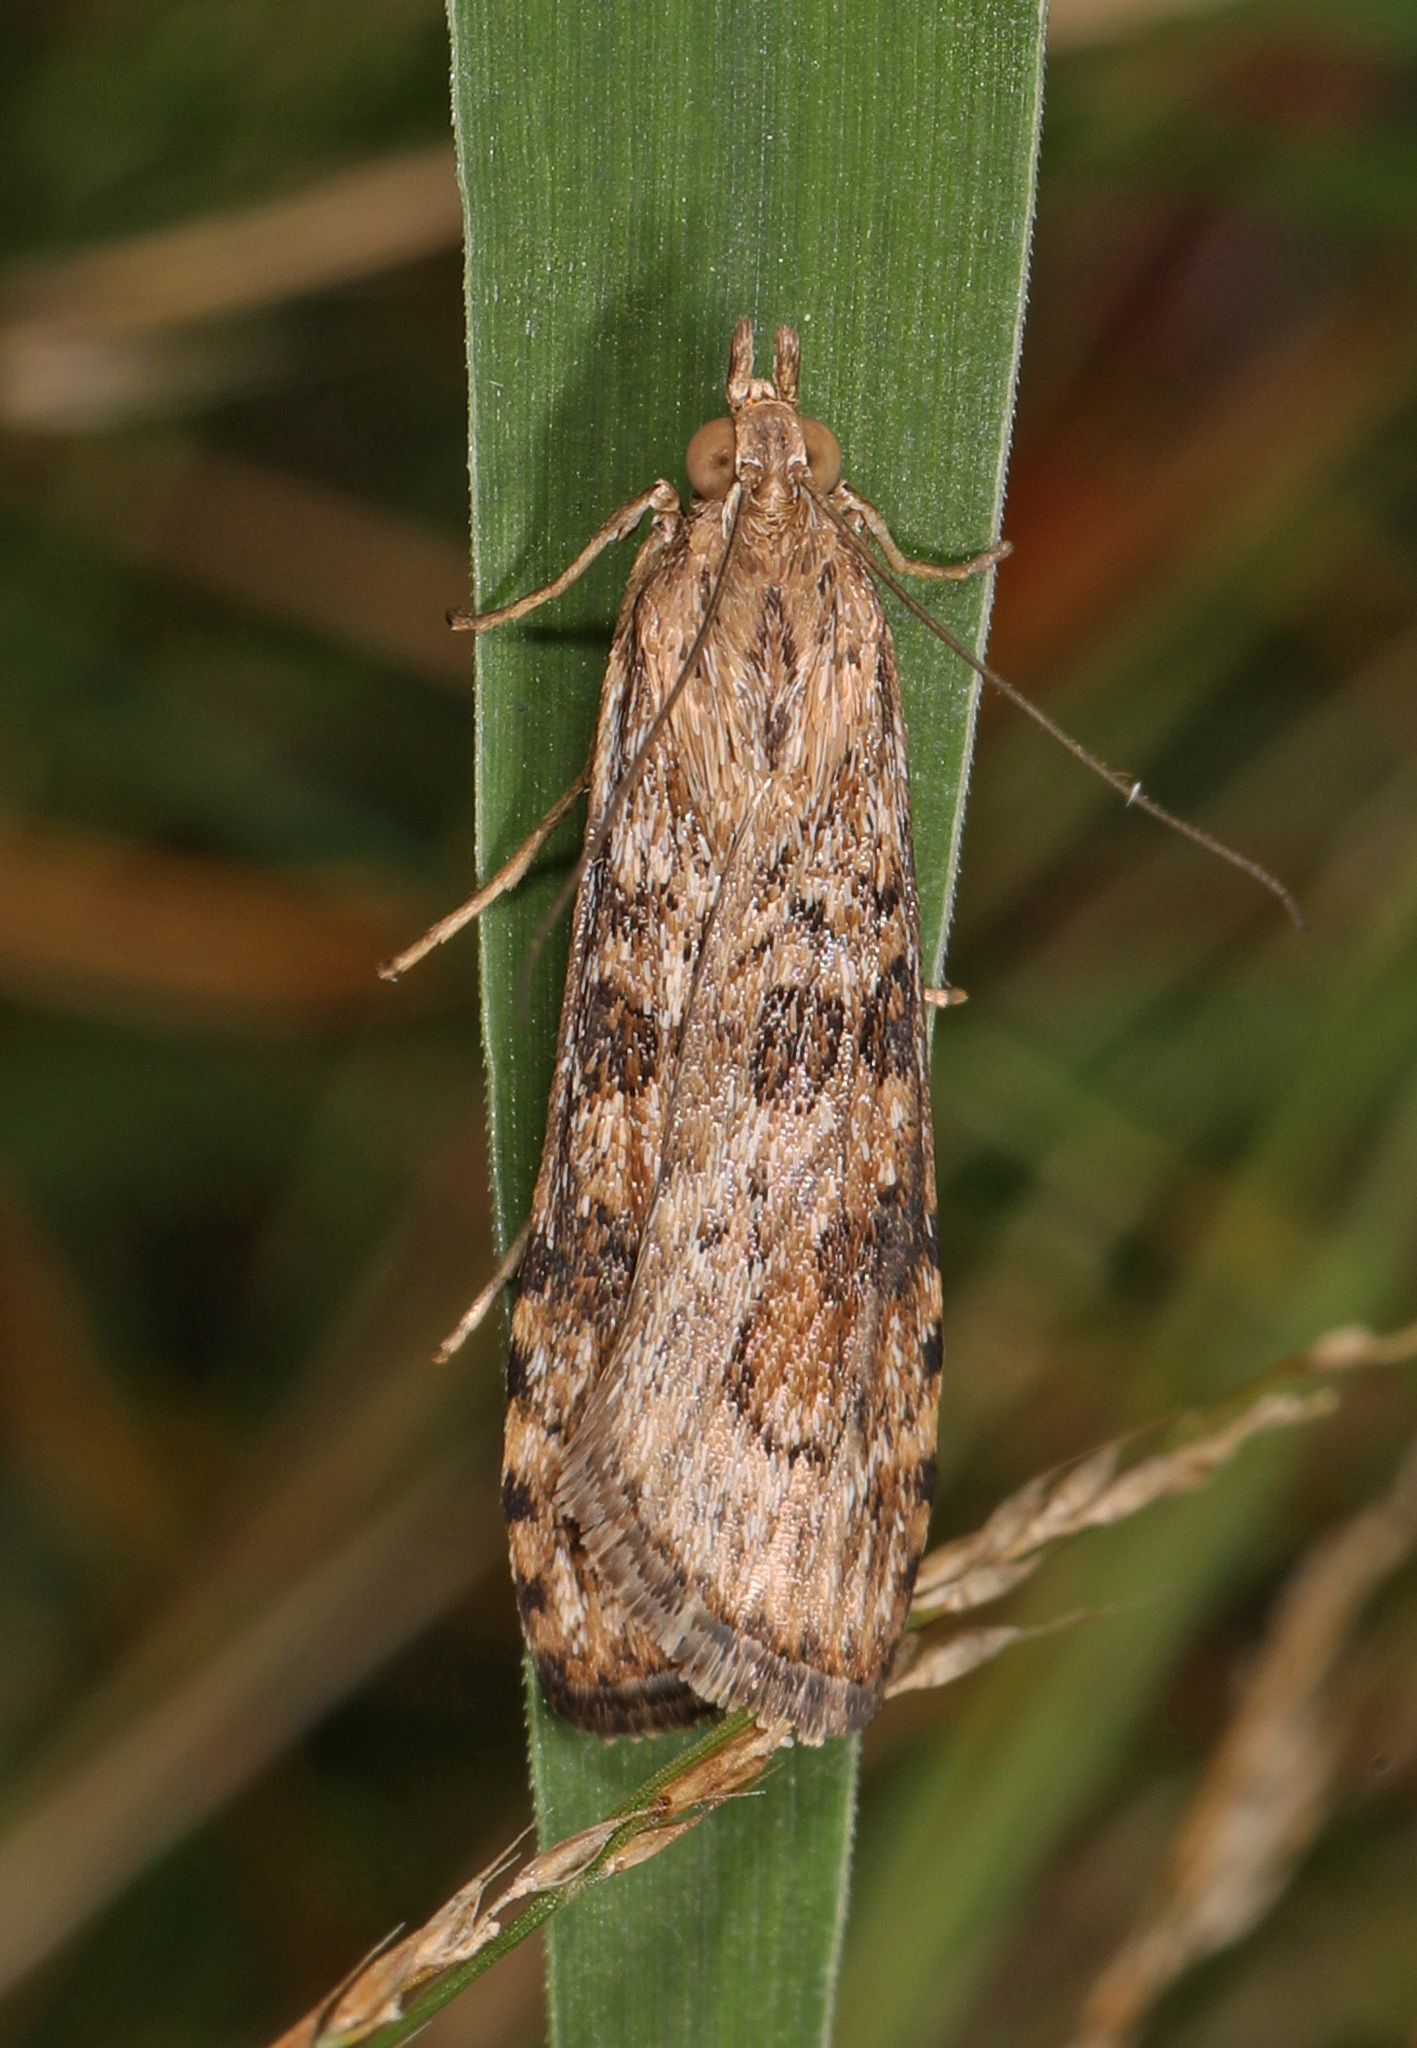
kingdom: Animalia
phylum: Arthropoda
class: Insecta
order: Lepidoptera
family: Crambidae
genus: Nomophila
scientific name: Nomophila nearctica
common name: American rush veneer
